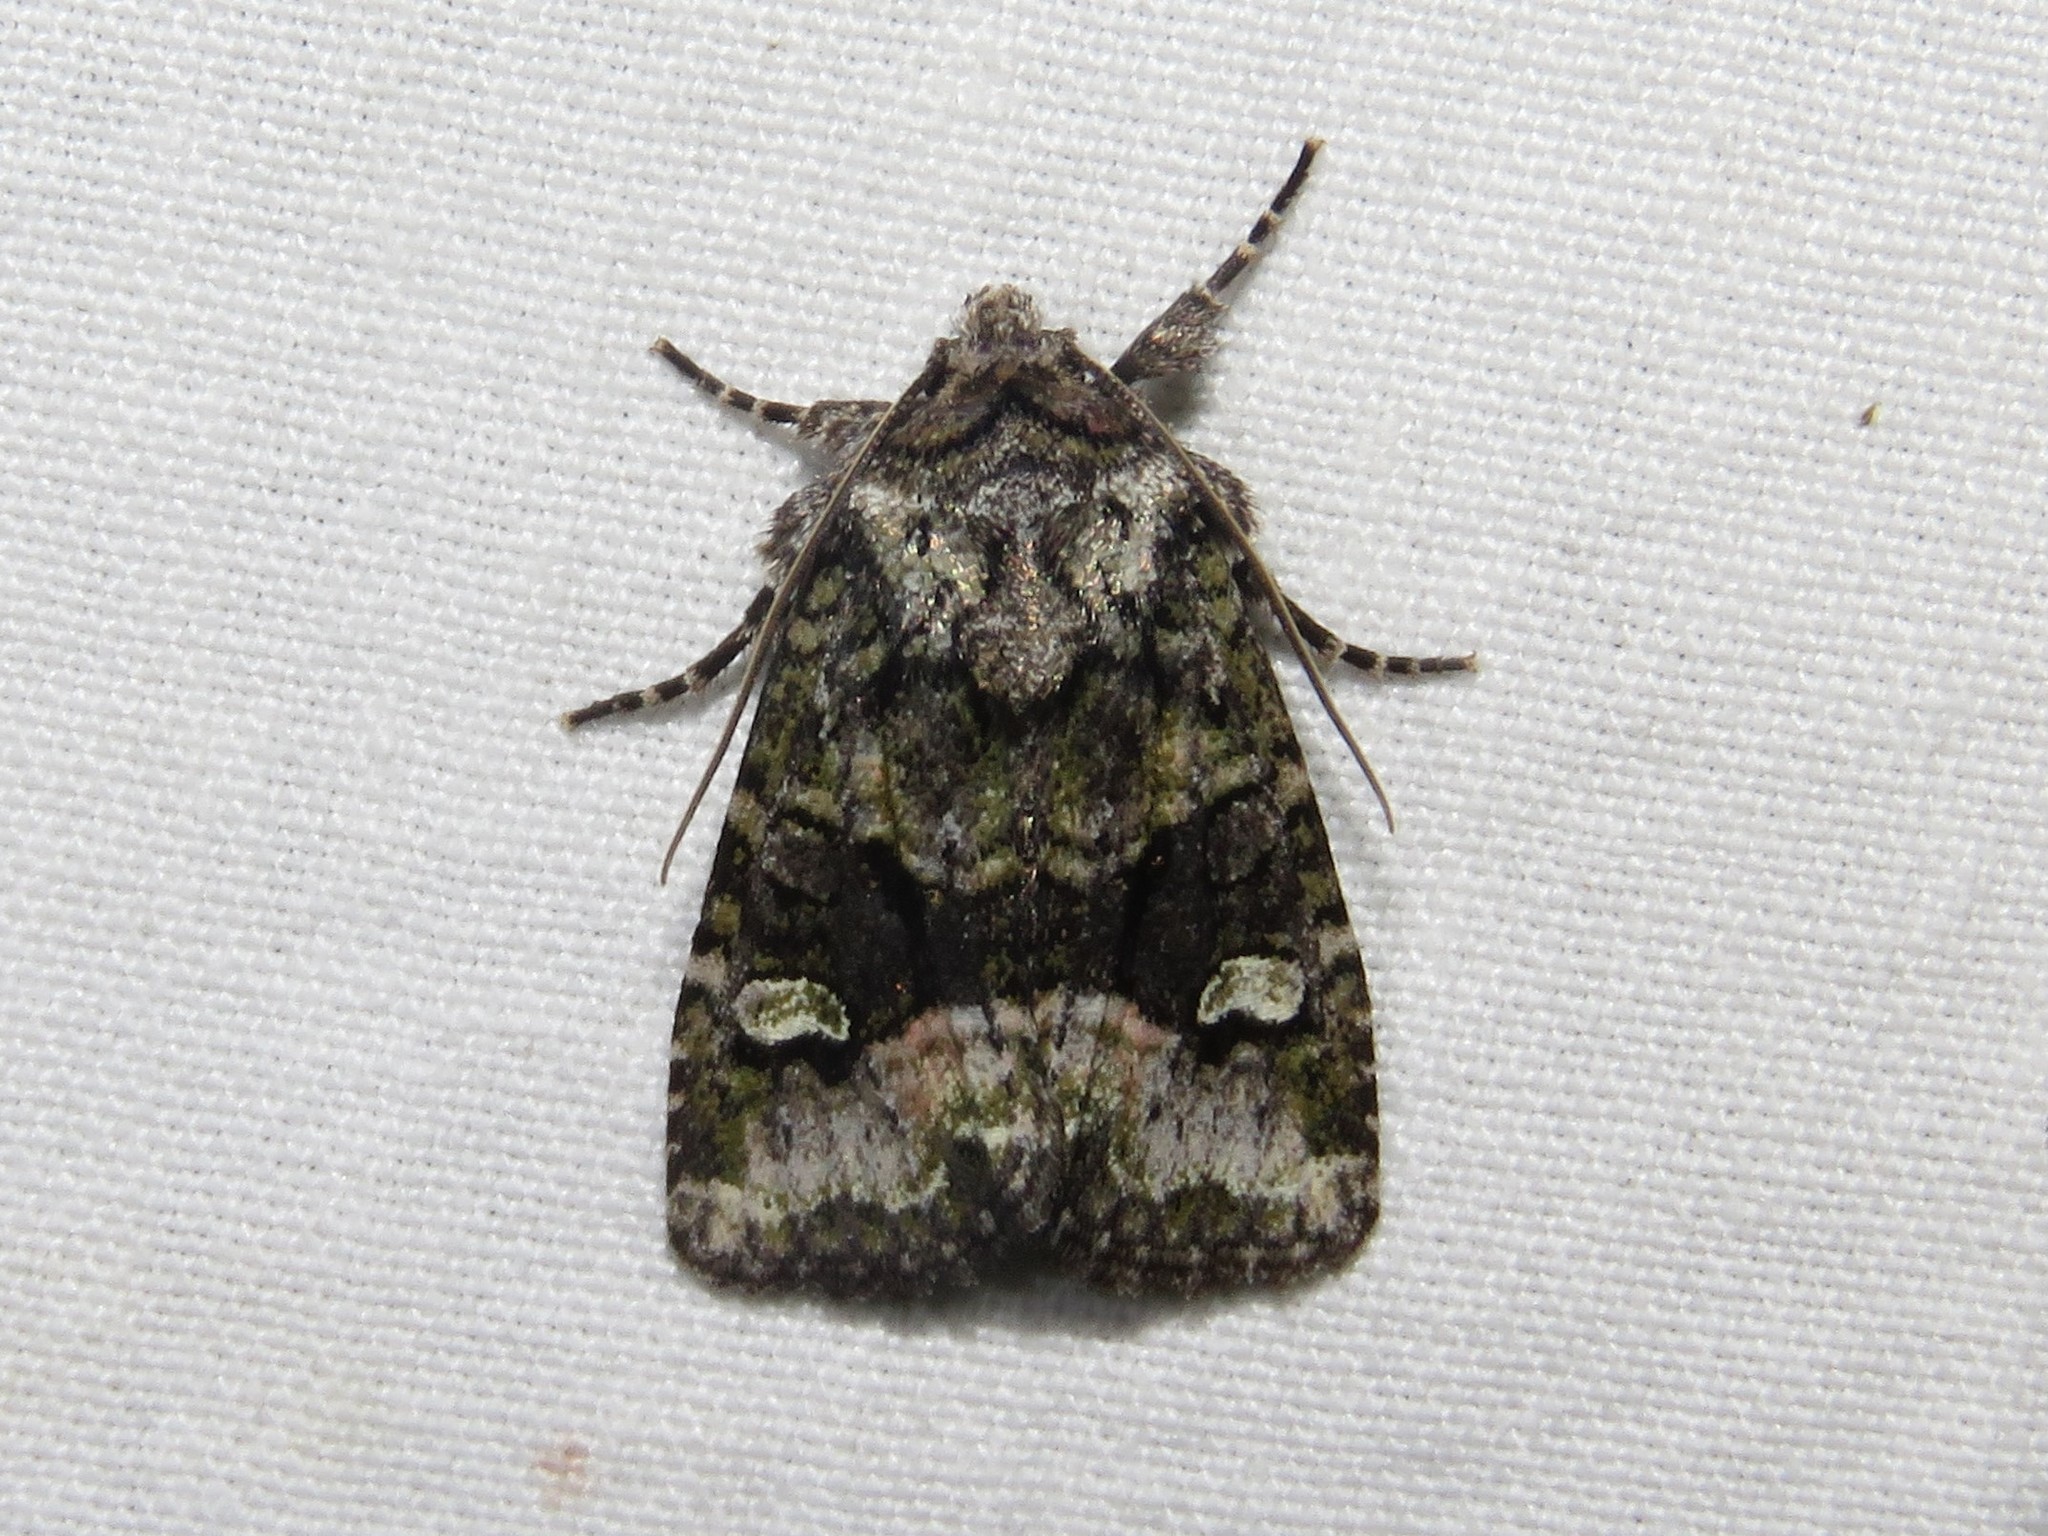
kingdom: Animalia
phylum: Arthropoda
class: Insecta
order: Lepidoptera
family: Noctuidae
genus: Lacinipolia
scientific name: Lacinipolia olivacea
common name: Olive arches moth
